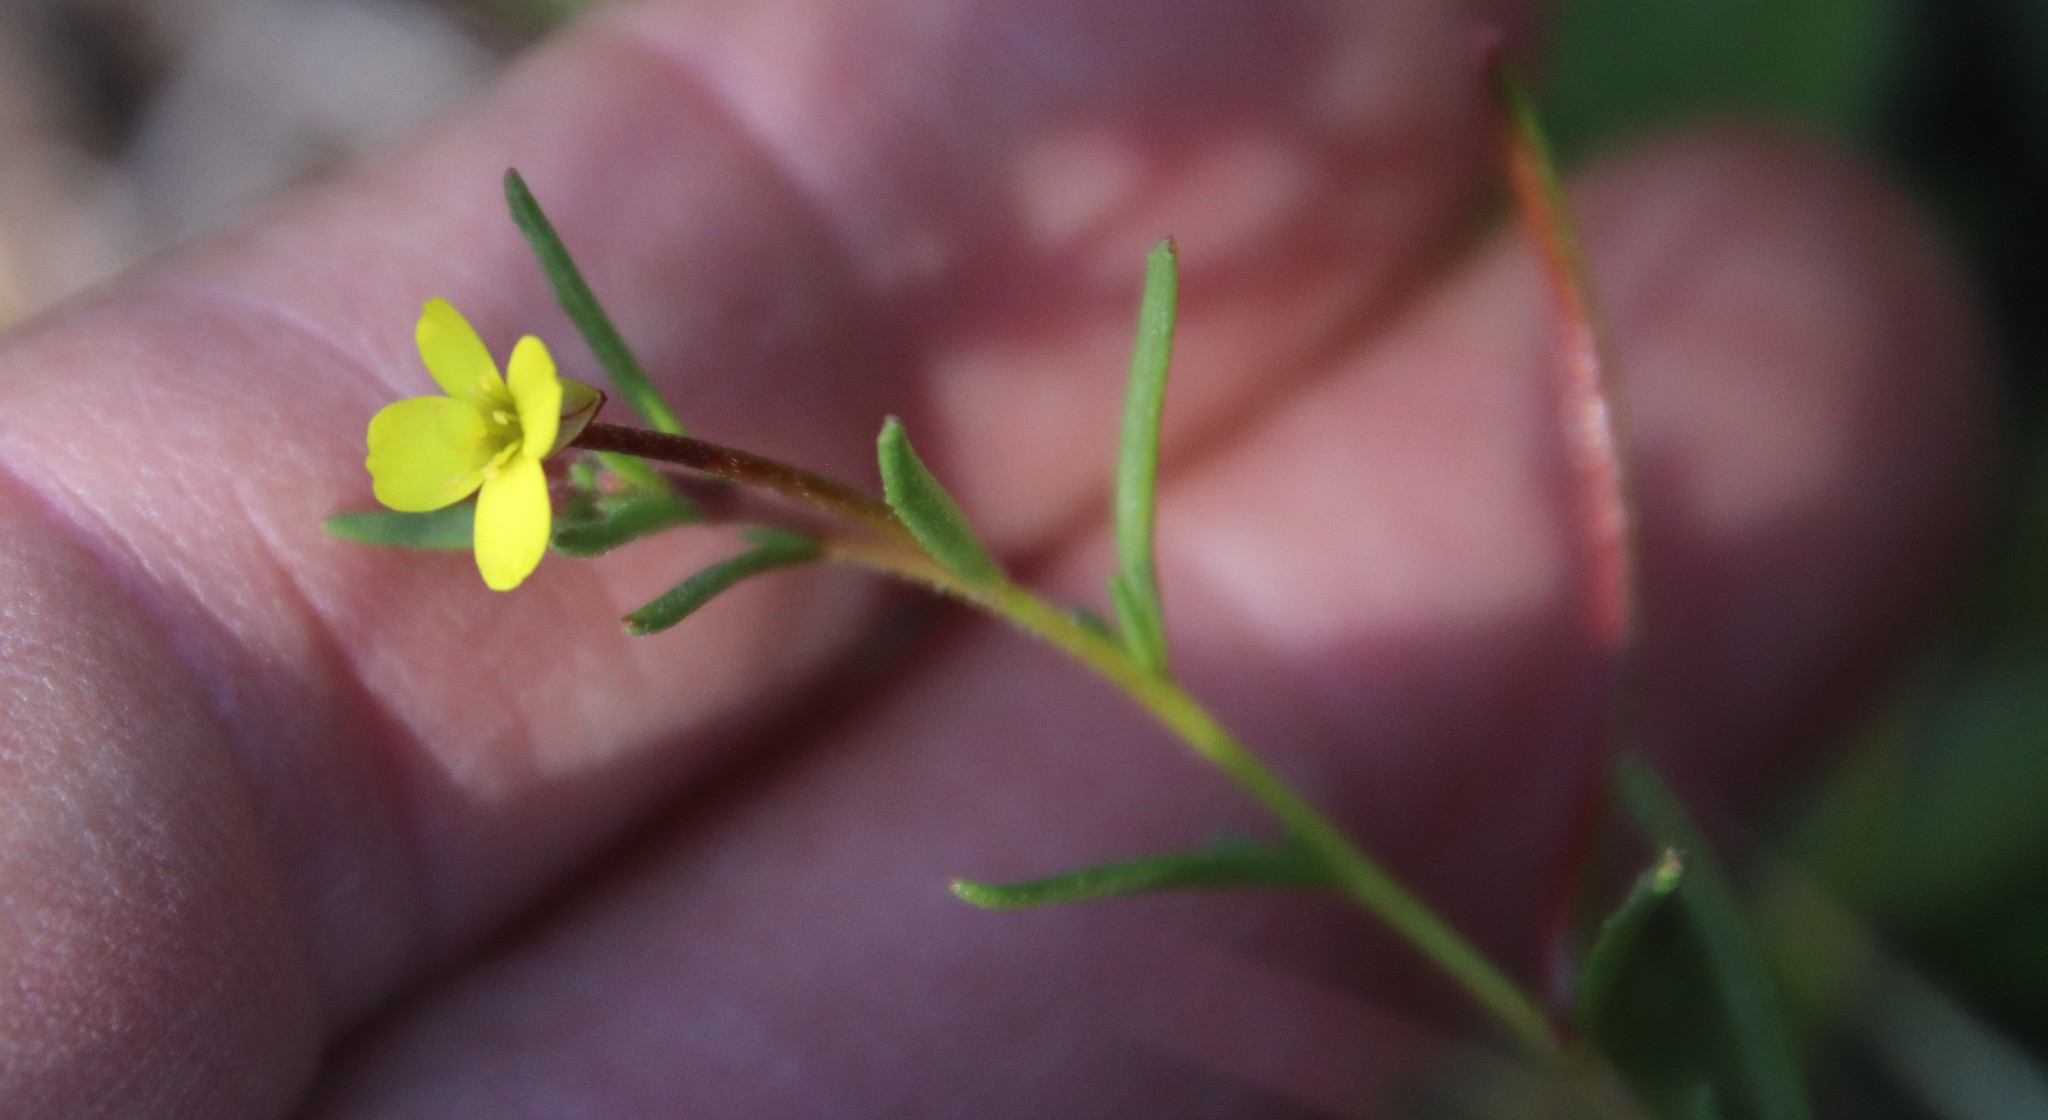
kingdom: Plantae
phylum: Tracheophyta
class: Magnoliopsida
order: Myrtales
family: Onagraceae
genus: Camissonia
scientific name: Camissonia strigulosa
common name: Contorted-primrose
